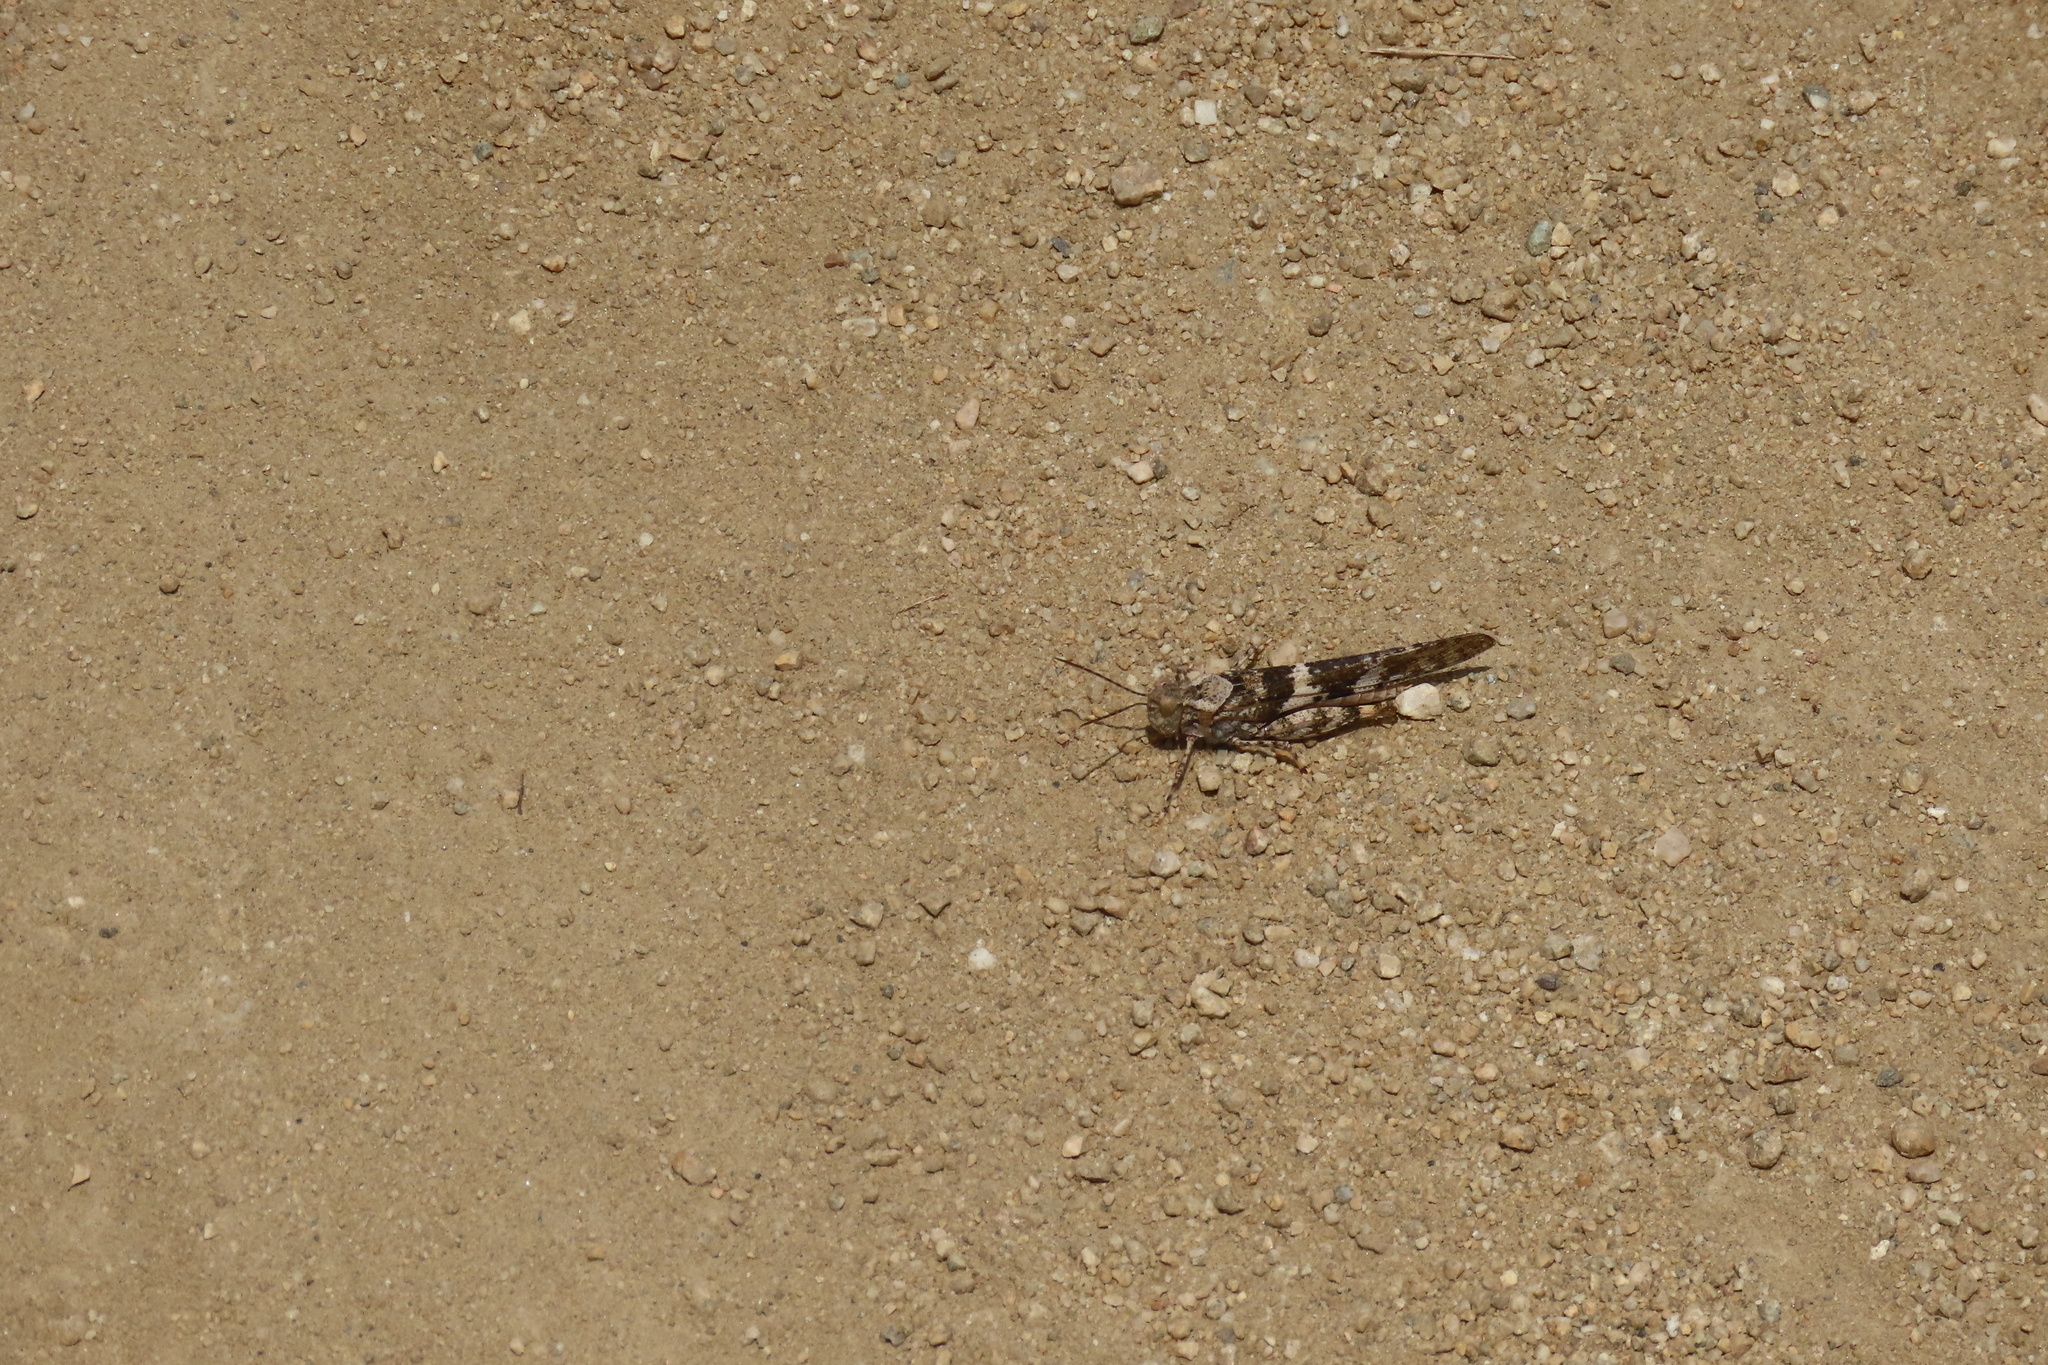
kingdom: Animalia
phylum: Arthropoda
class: Insecta
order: Orthoptera
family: Acrididae
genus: Trimerotropis
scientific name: Trimerotropis pallidipennis
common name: Pallid-winged grasshopper
